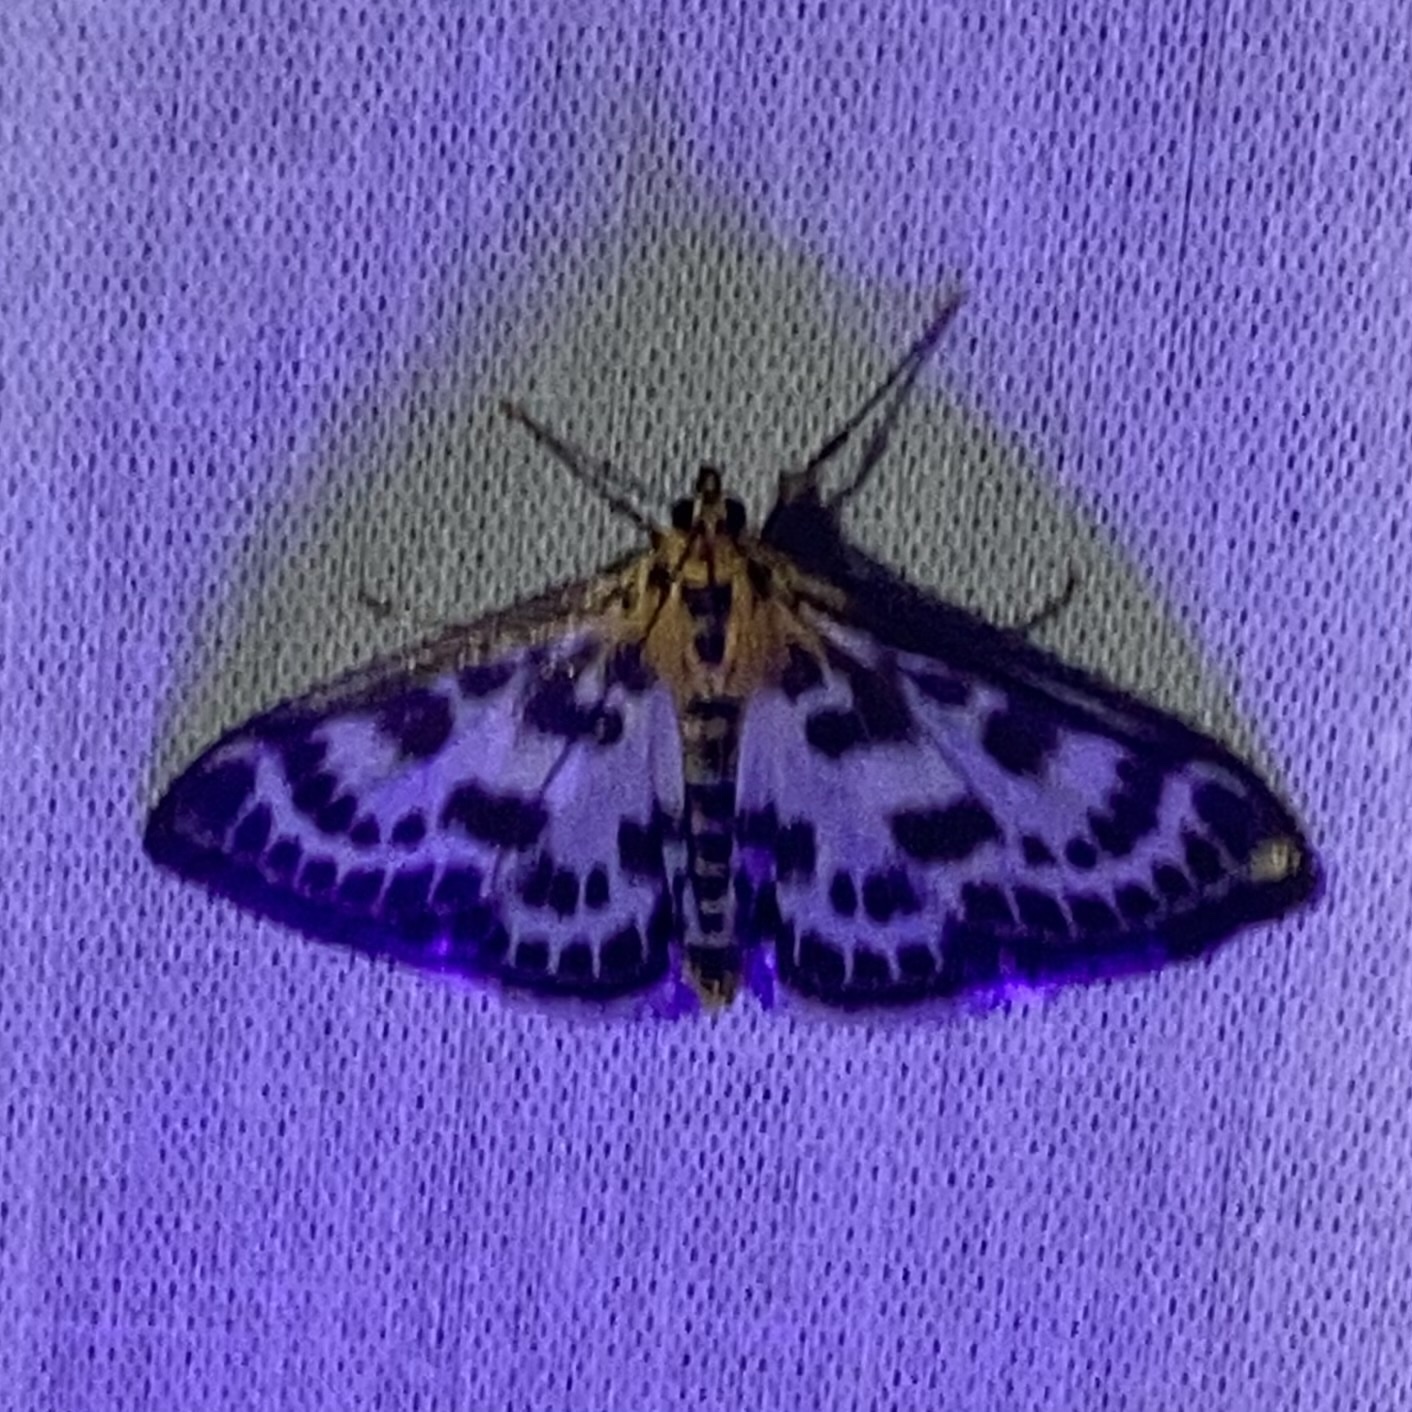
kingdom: Animalia
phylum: Arthropoda
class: Insecta
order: Lepidoptera
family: Crambidae
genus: Anania
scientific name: Anania hortulata
